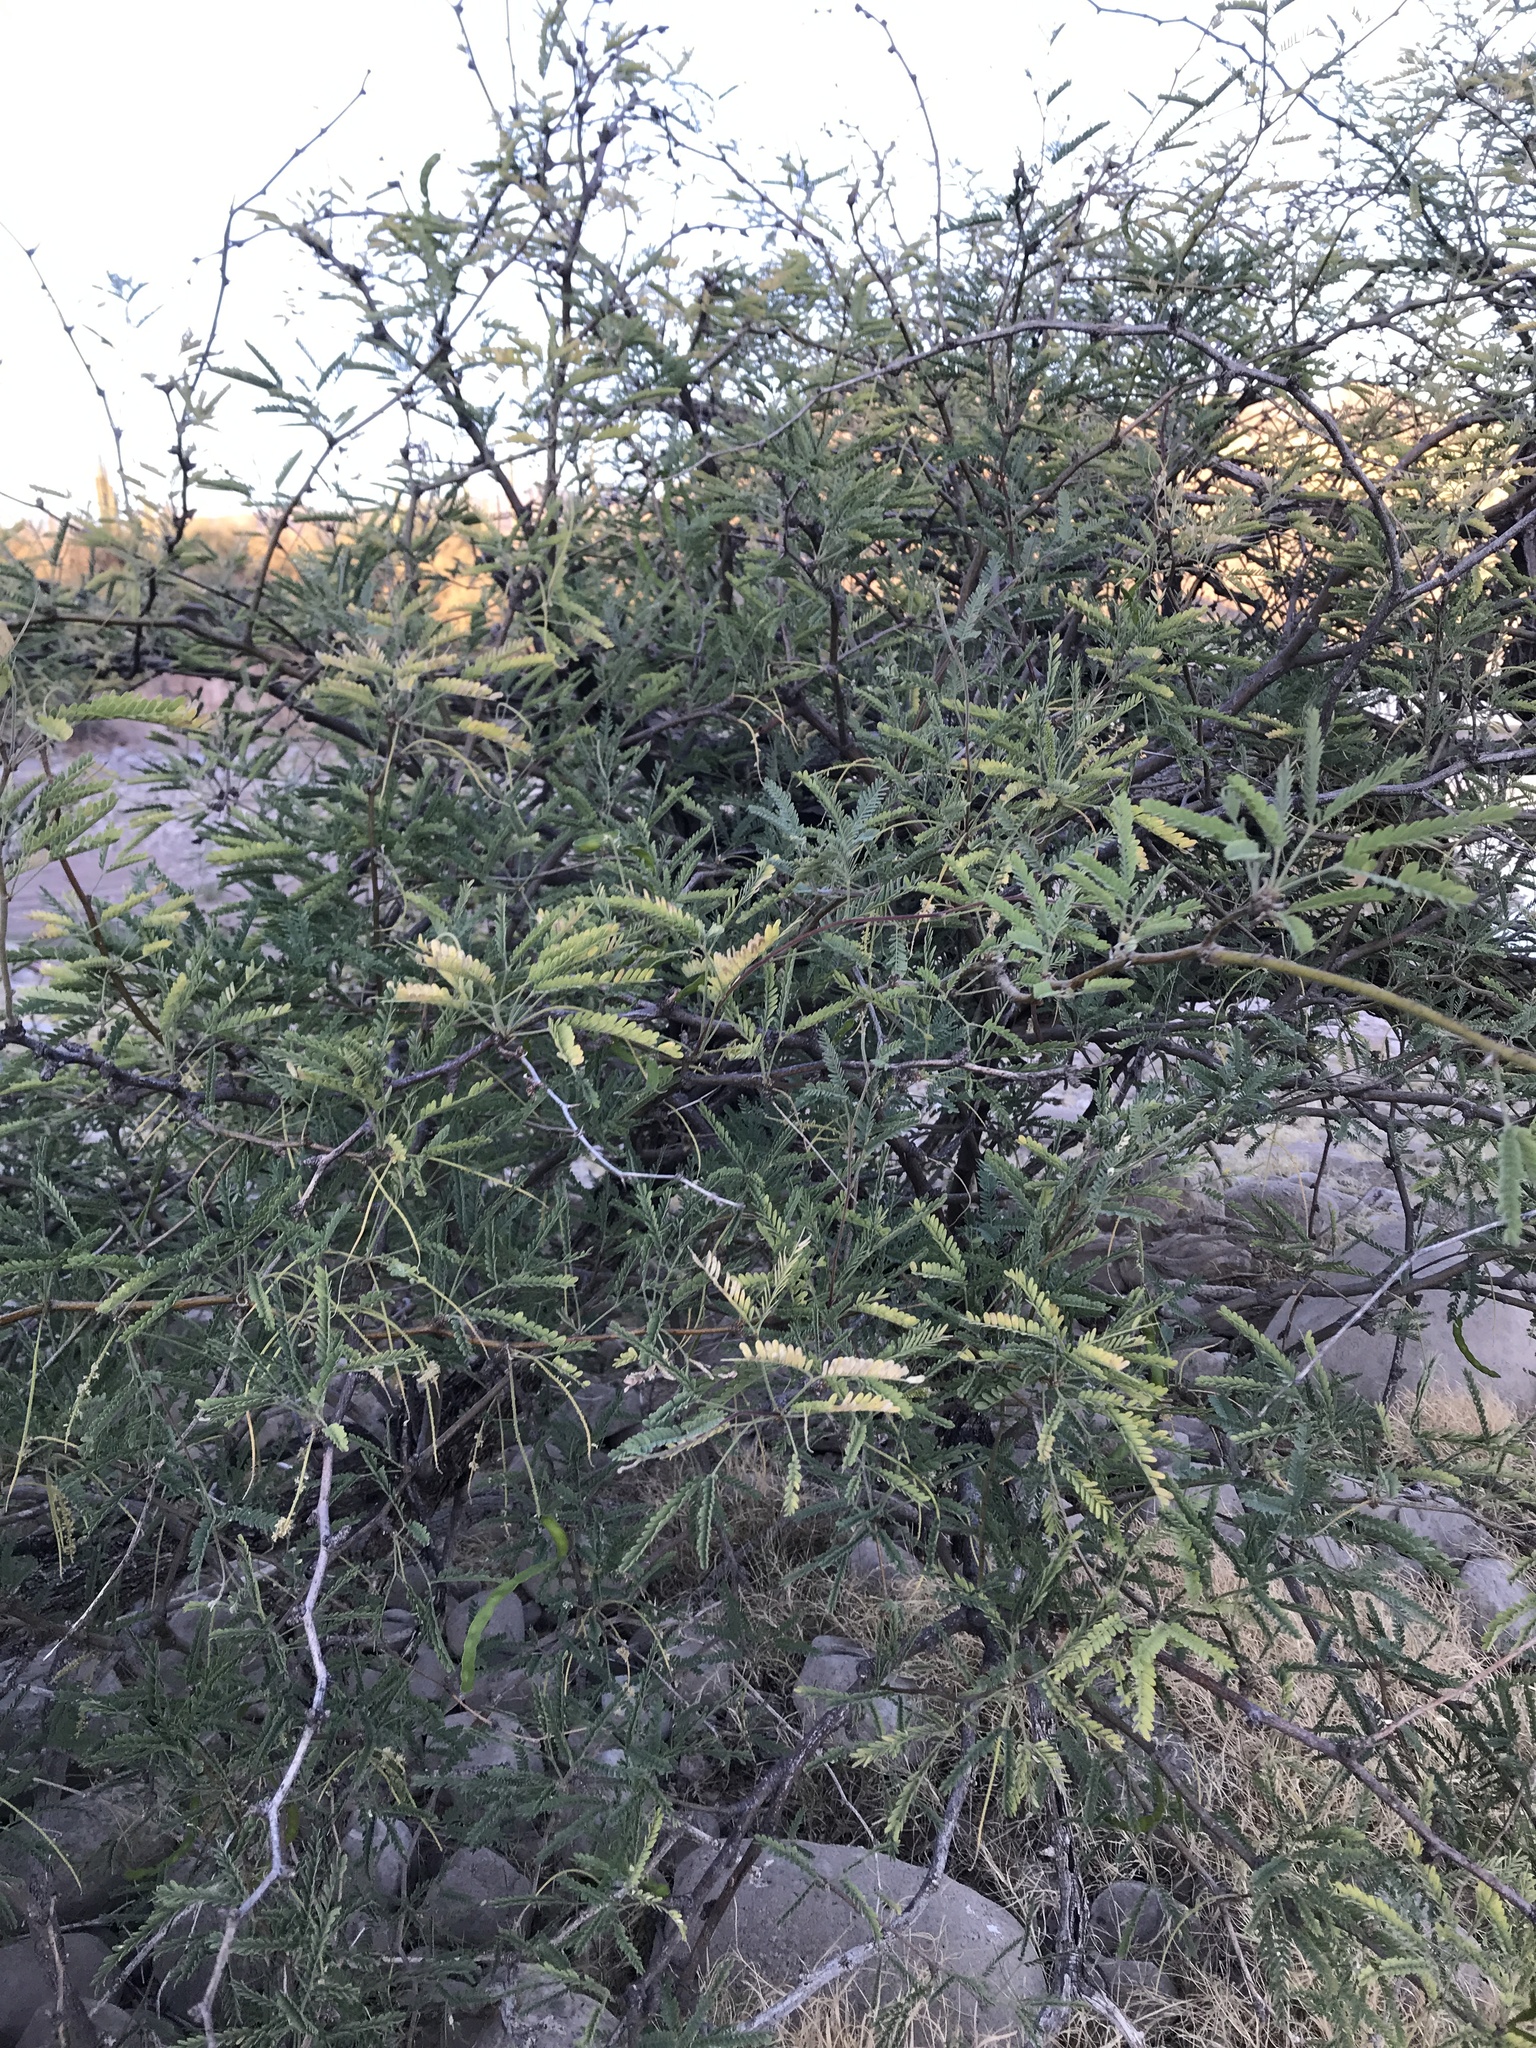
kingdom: Plantae
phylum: Tracheophyta
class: Magnoliopsida
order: Fabales
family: Fabaceae
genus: Prosopis
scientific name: Prosopis velutina
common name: Velvet mesquite
